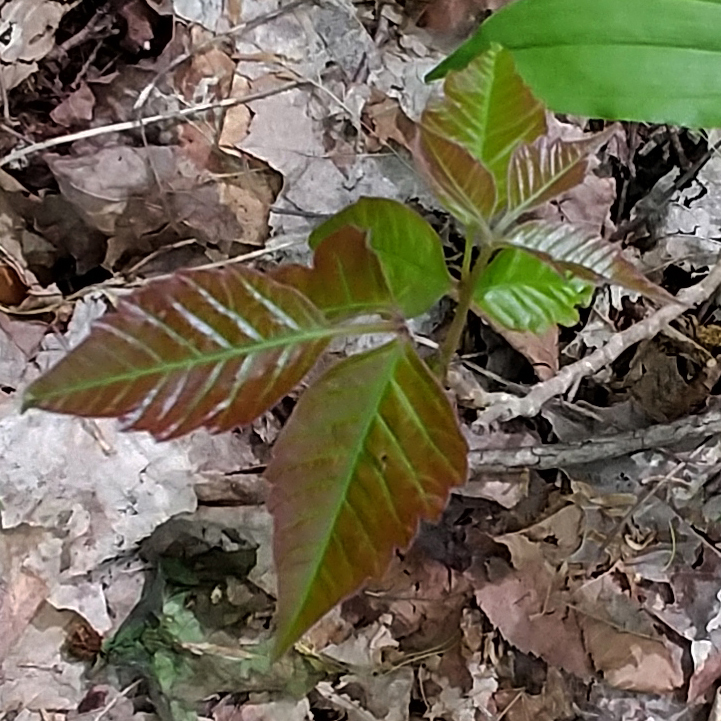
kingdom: Plantae
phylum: Tracheophyta
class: Magnoliopsida
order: Sapindales
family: Anacardiaceae
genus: Toxicodendron
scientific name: Toxicodendron radicans
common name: Poison ivy
